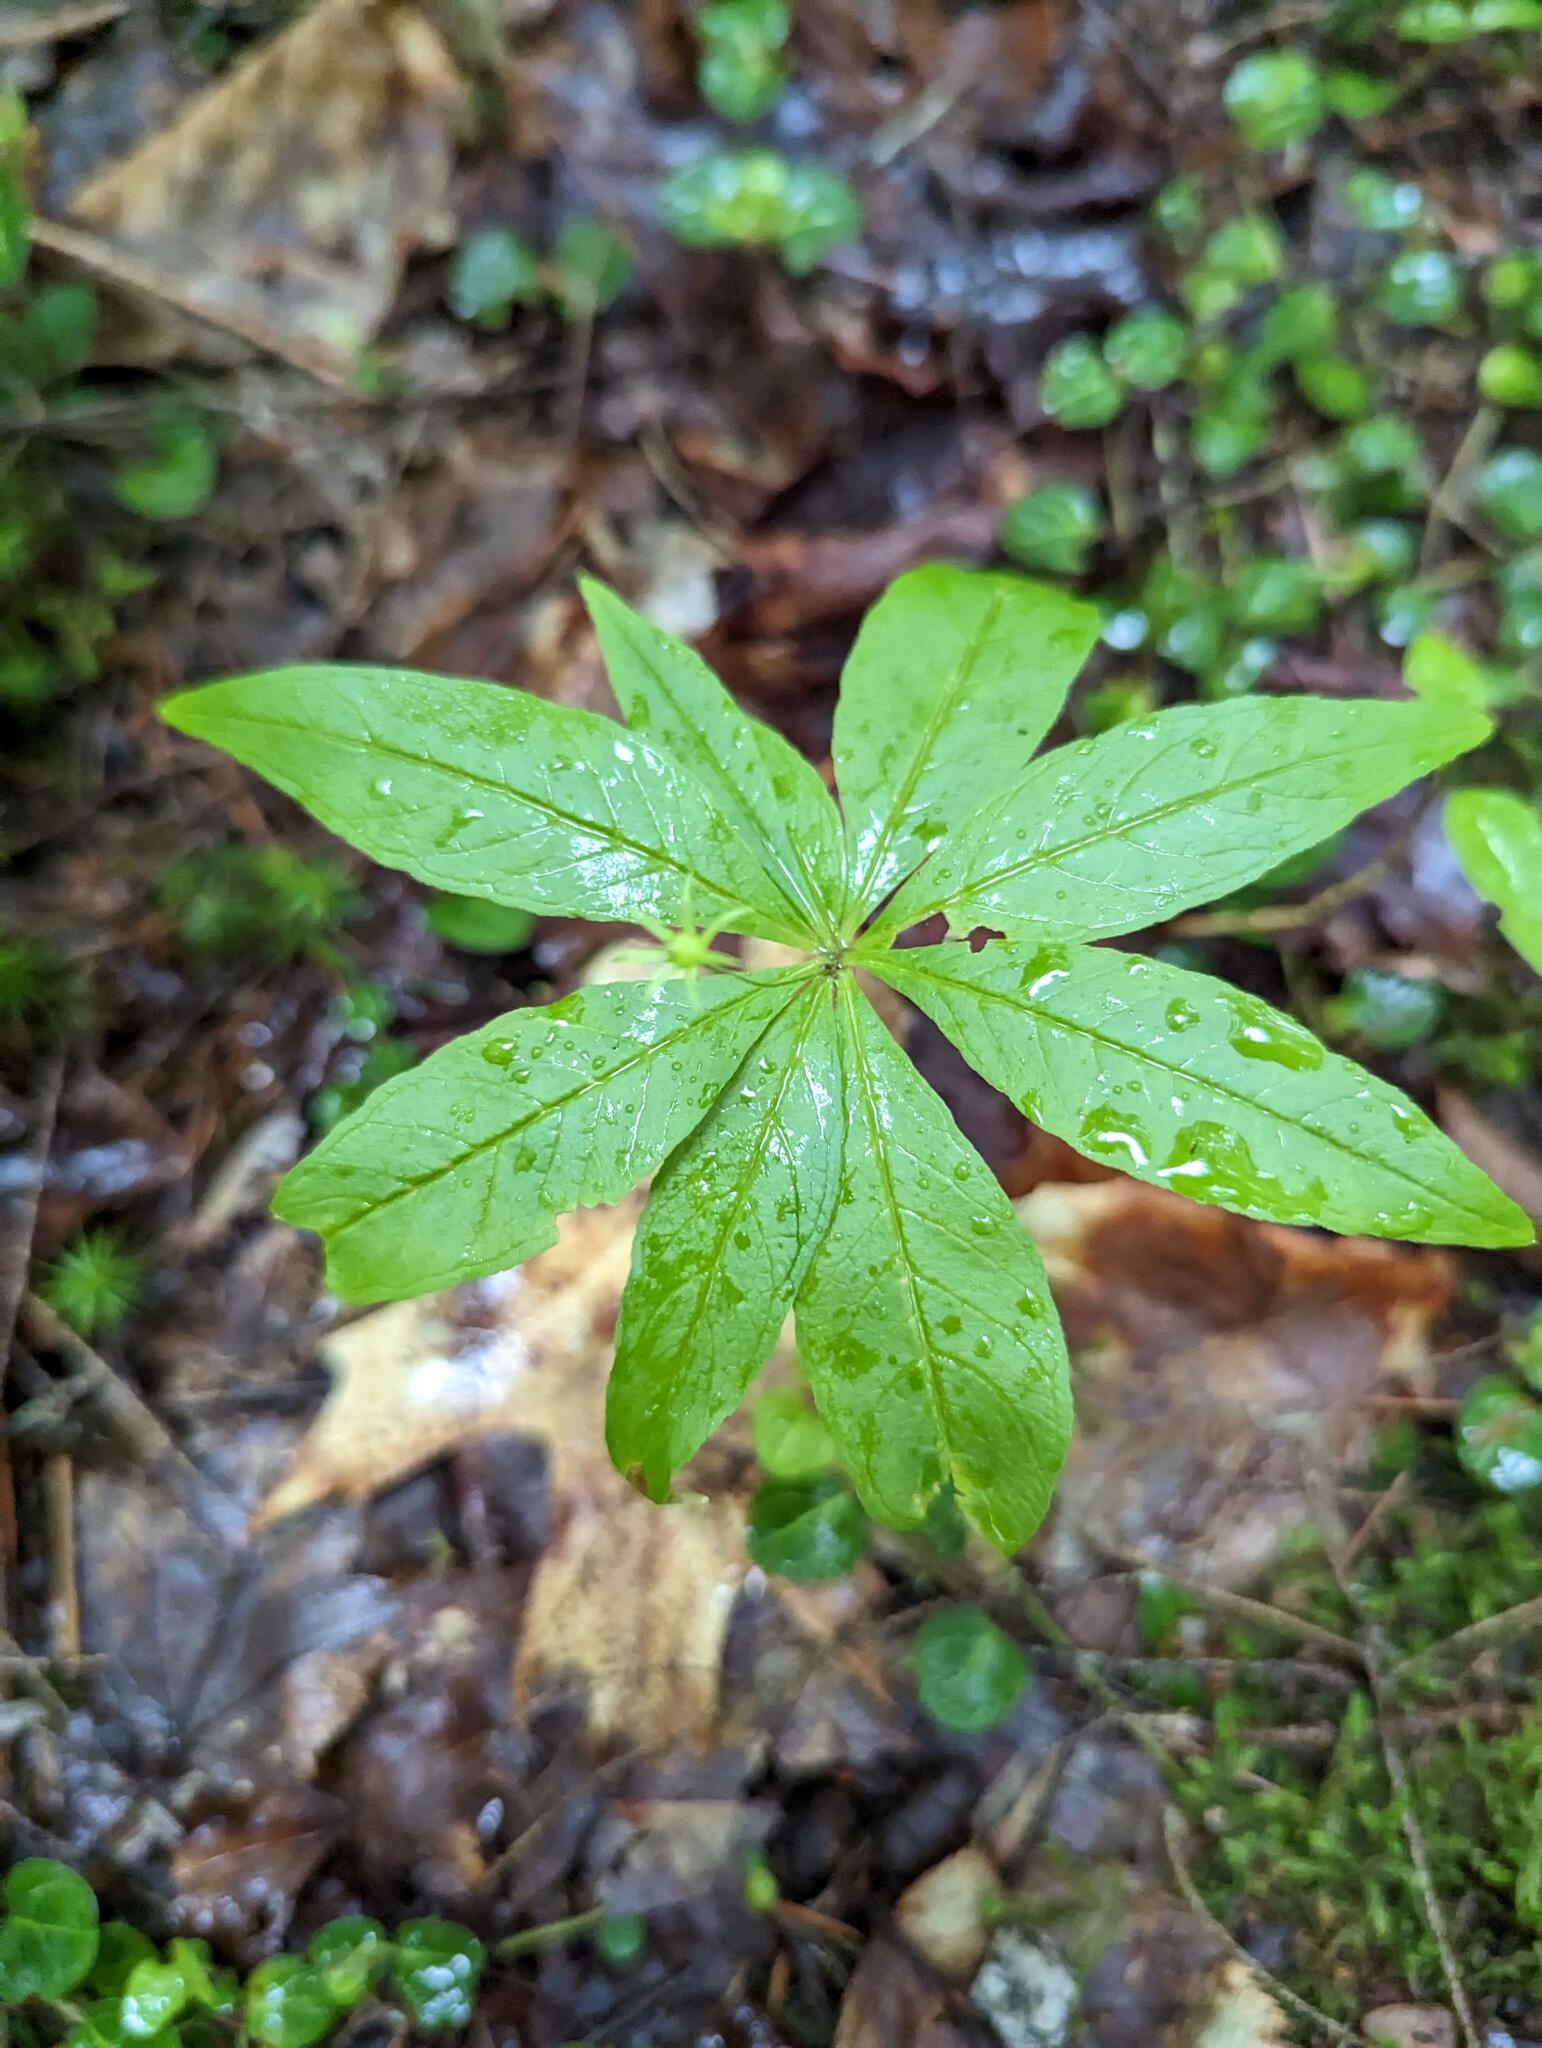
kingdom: Plantae
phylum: Tracheophyta
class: Magnoliopsida
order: Ericales
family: Primulaceae
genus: Lysimachia
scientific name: Lysimachia borealis
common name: American starflower
